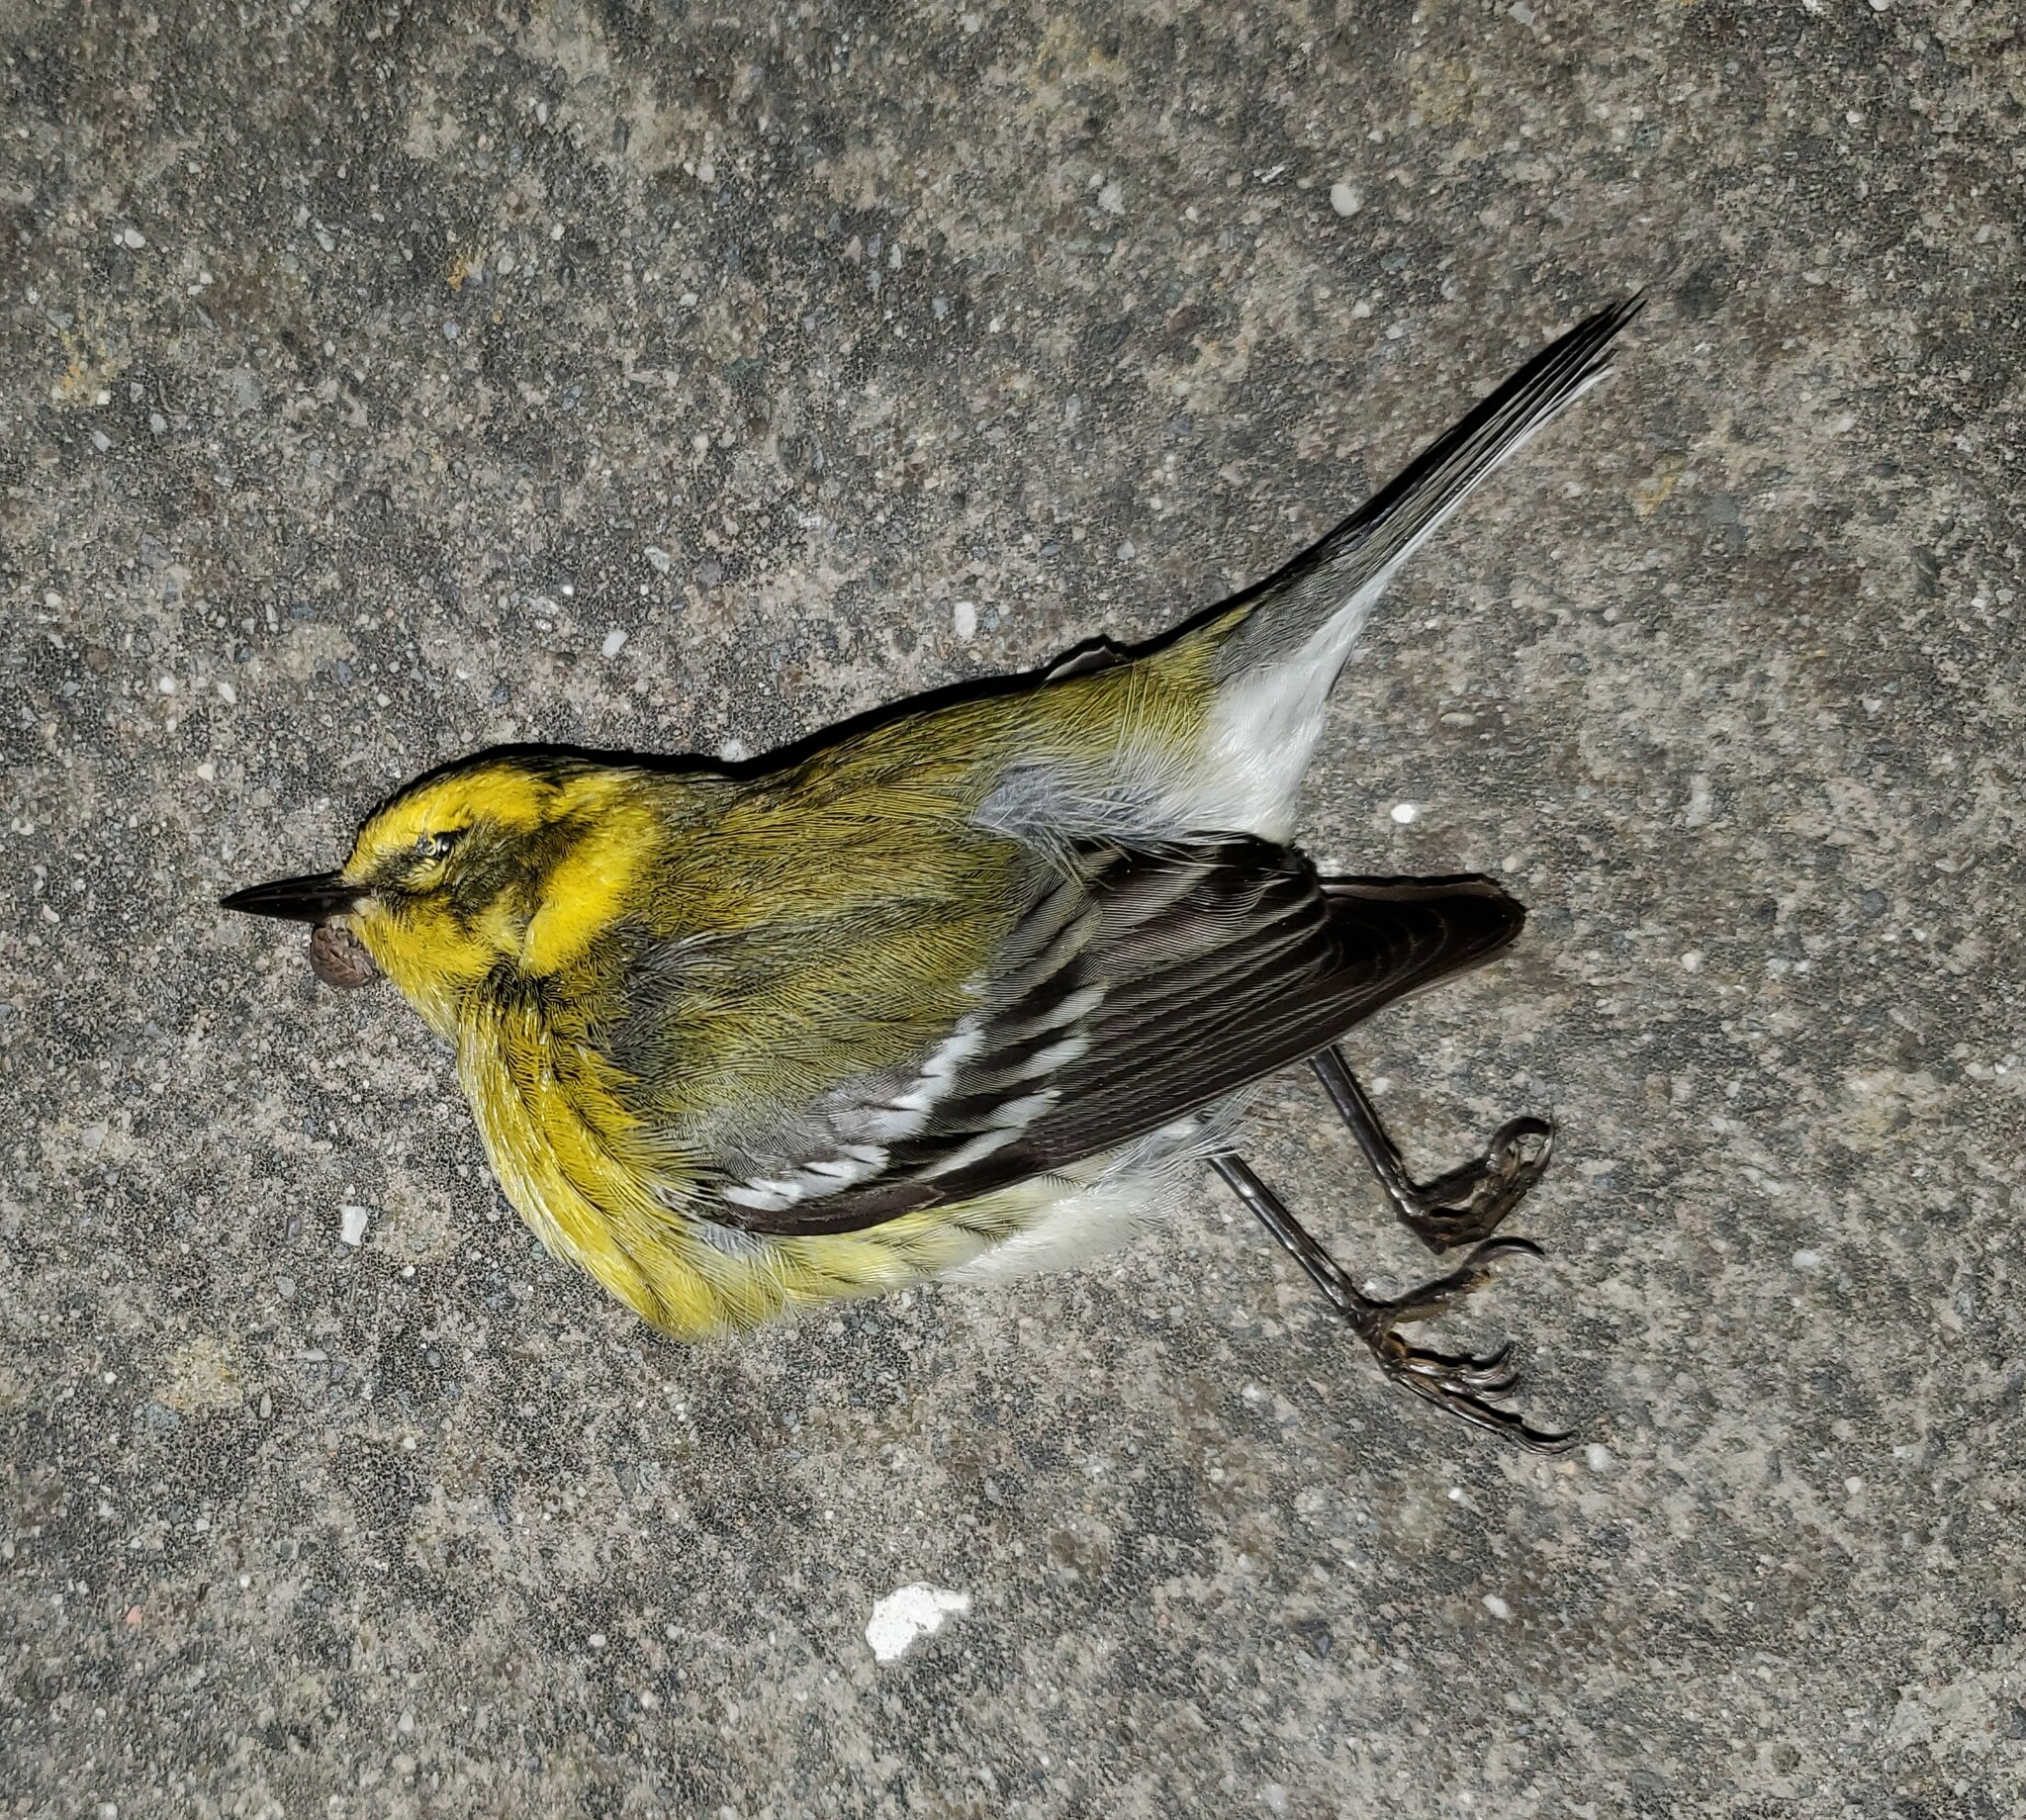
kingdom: Animalia
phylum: Chordata
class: Aves
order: Passeriformes
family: Parulidae
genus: Setophaga
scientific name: Setophaga townsendi
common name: Townsend's warbler
